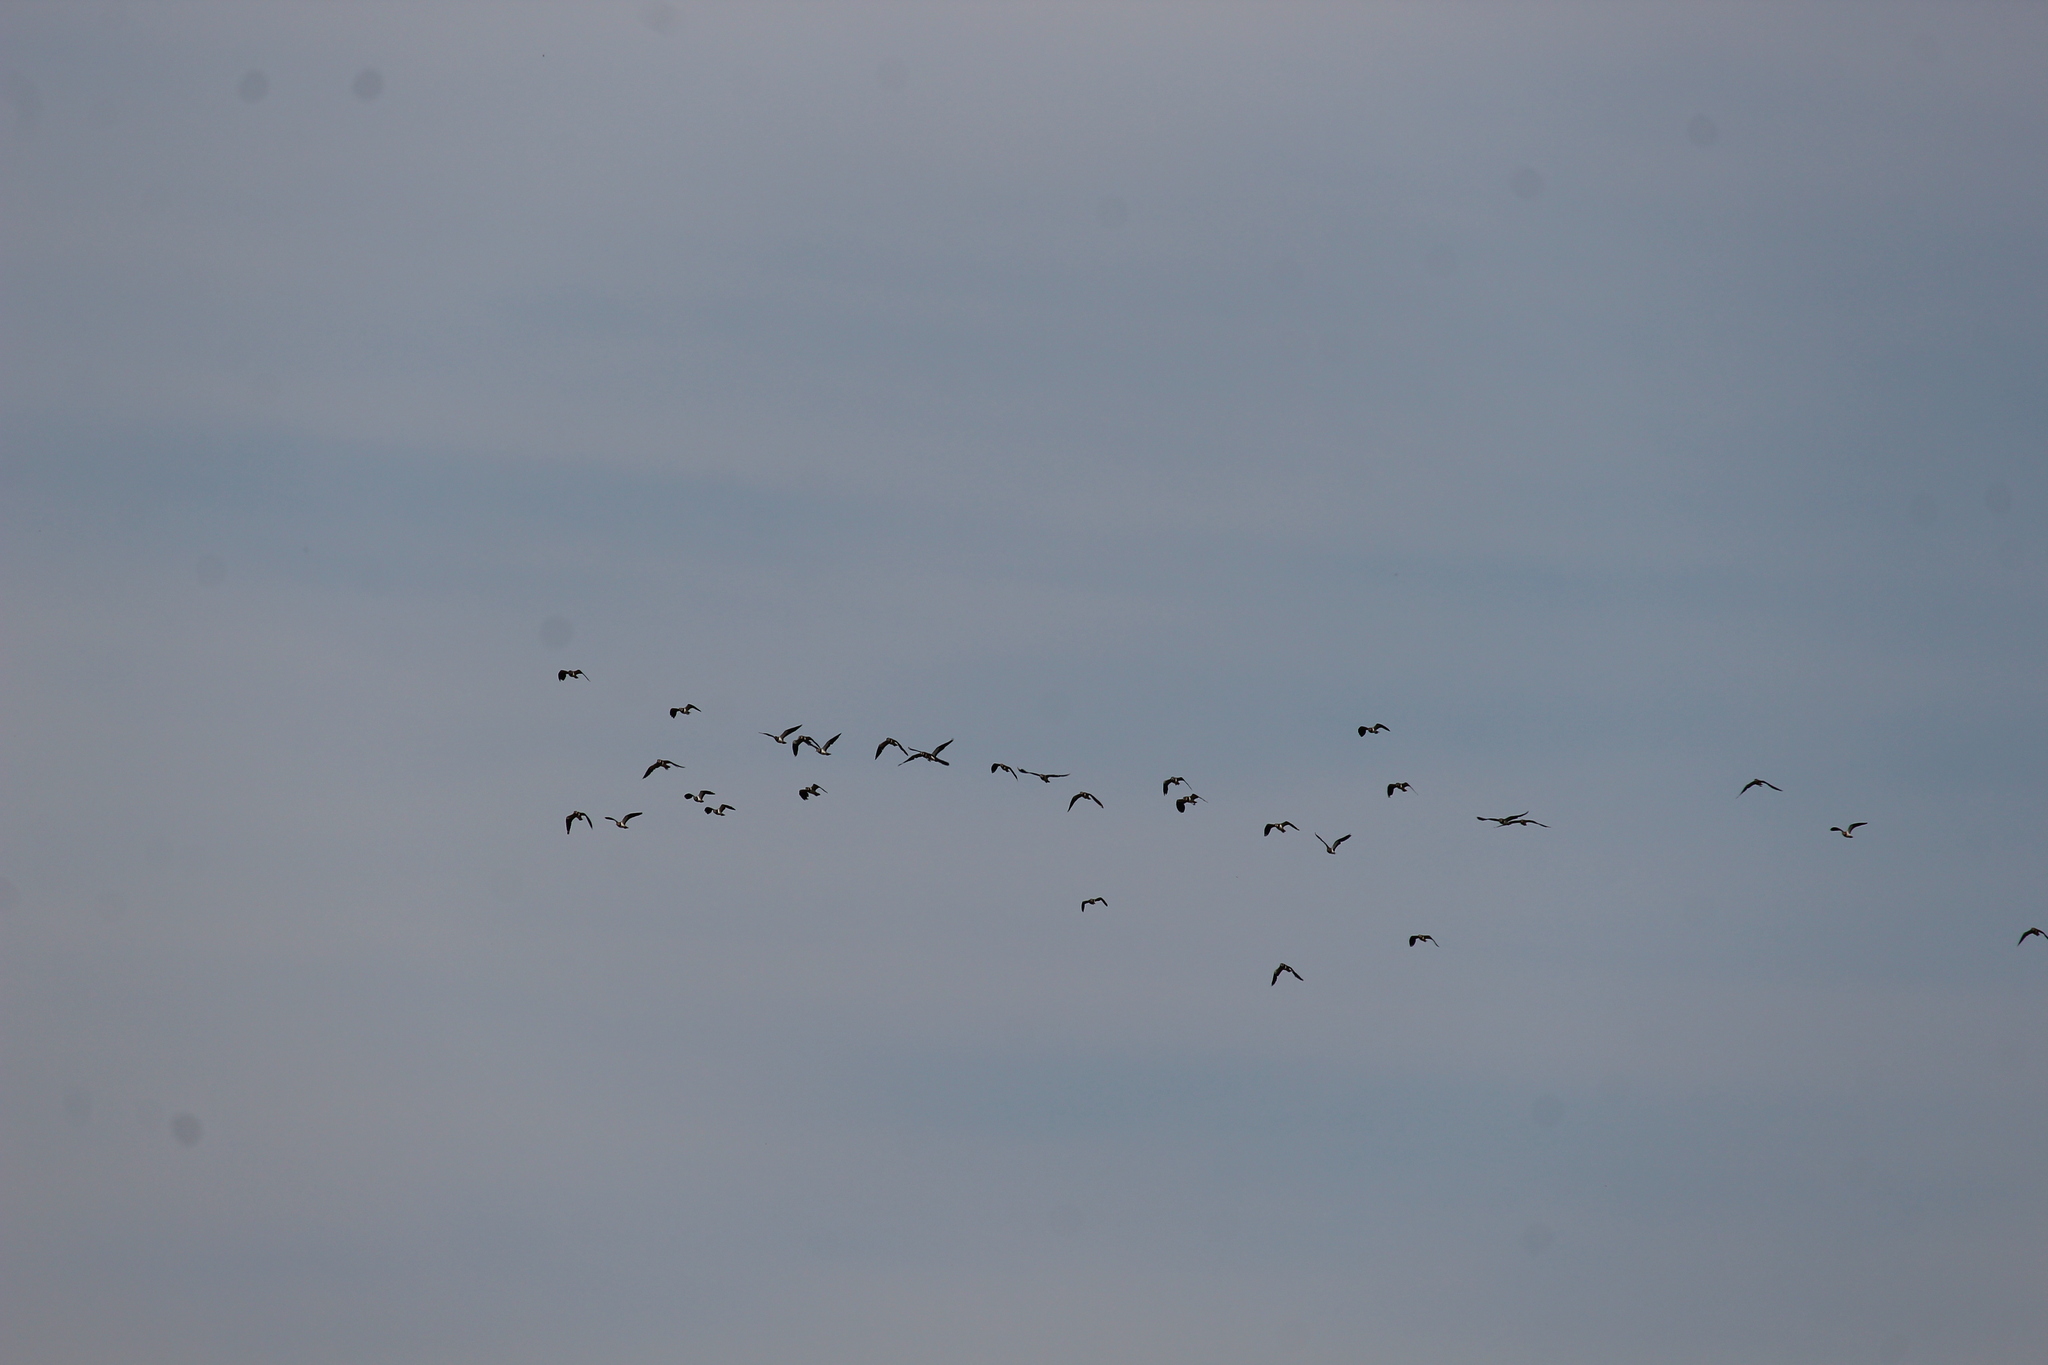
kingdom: Animalia
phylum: Chordata
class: Aves
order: Charadriiformes
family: Charadriidae
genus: Vanellus
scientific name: Vanellus vanellus
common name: Northern lapwing
